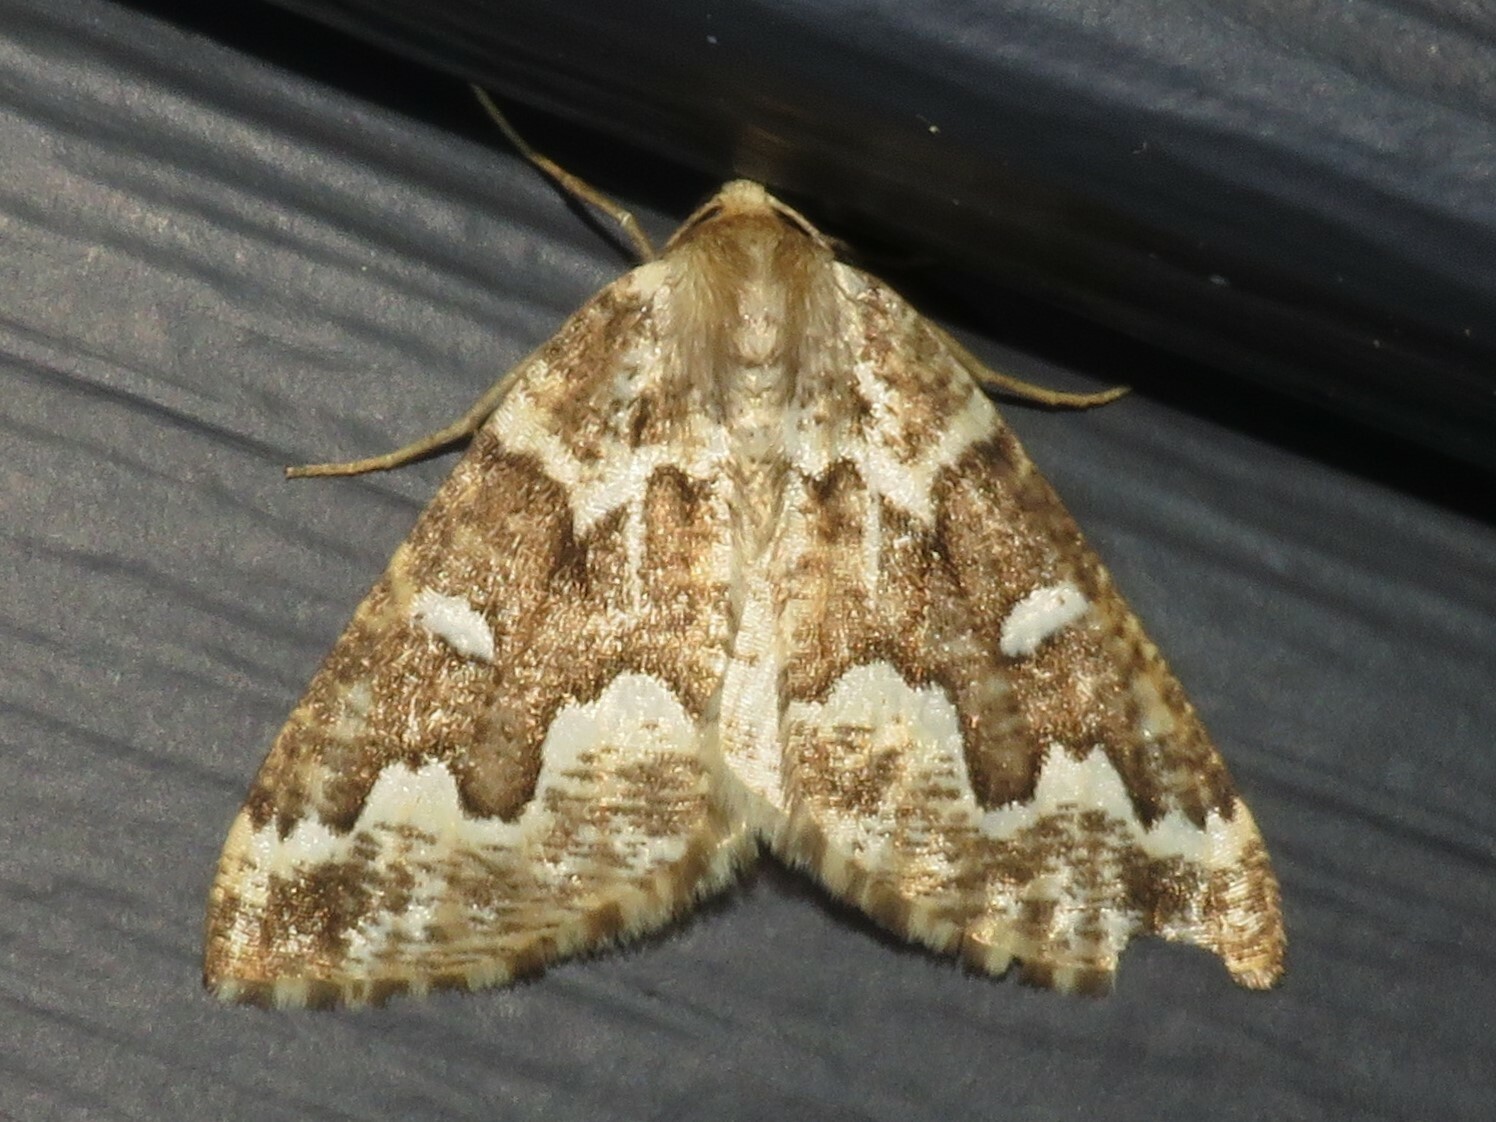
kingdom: Animalia
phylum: Arthropoda
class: Insecta
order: Lepidoptera
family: Geometridae
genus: Caripeta
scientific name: Caripeta divisata
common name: Gray spruce looper
